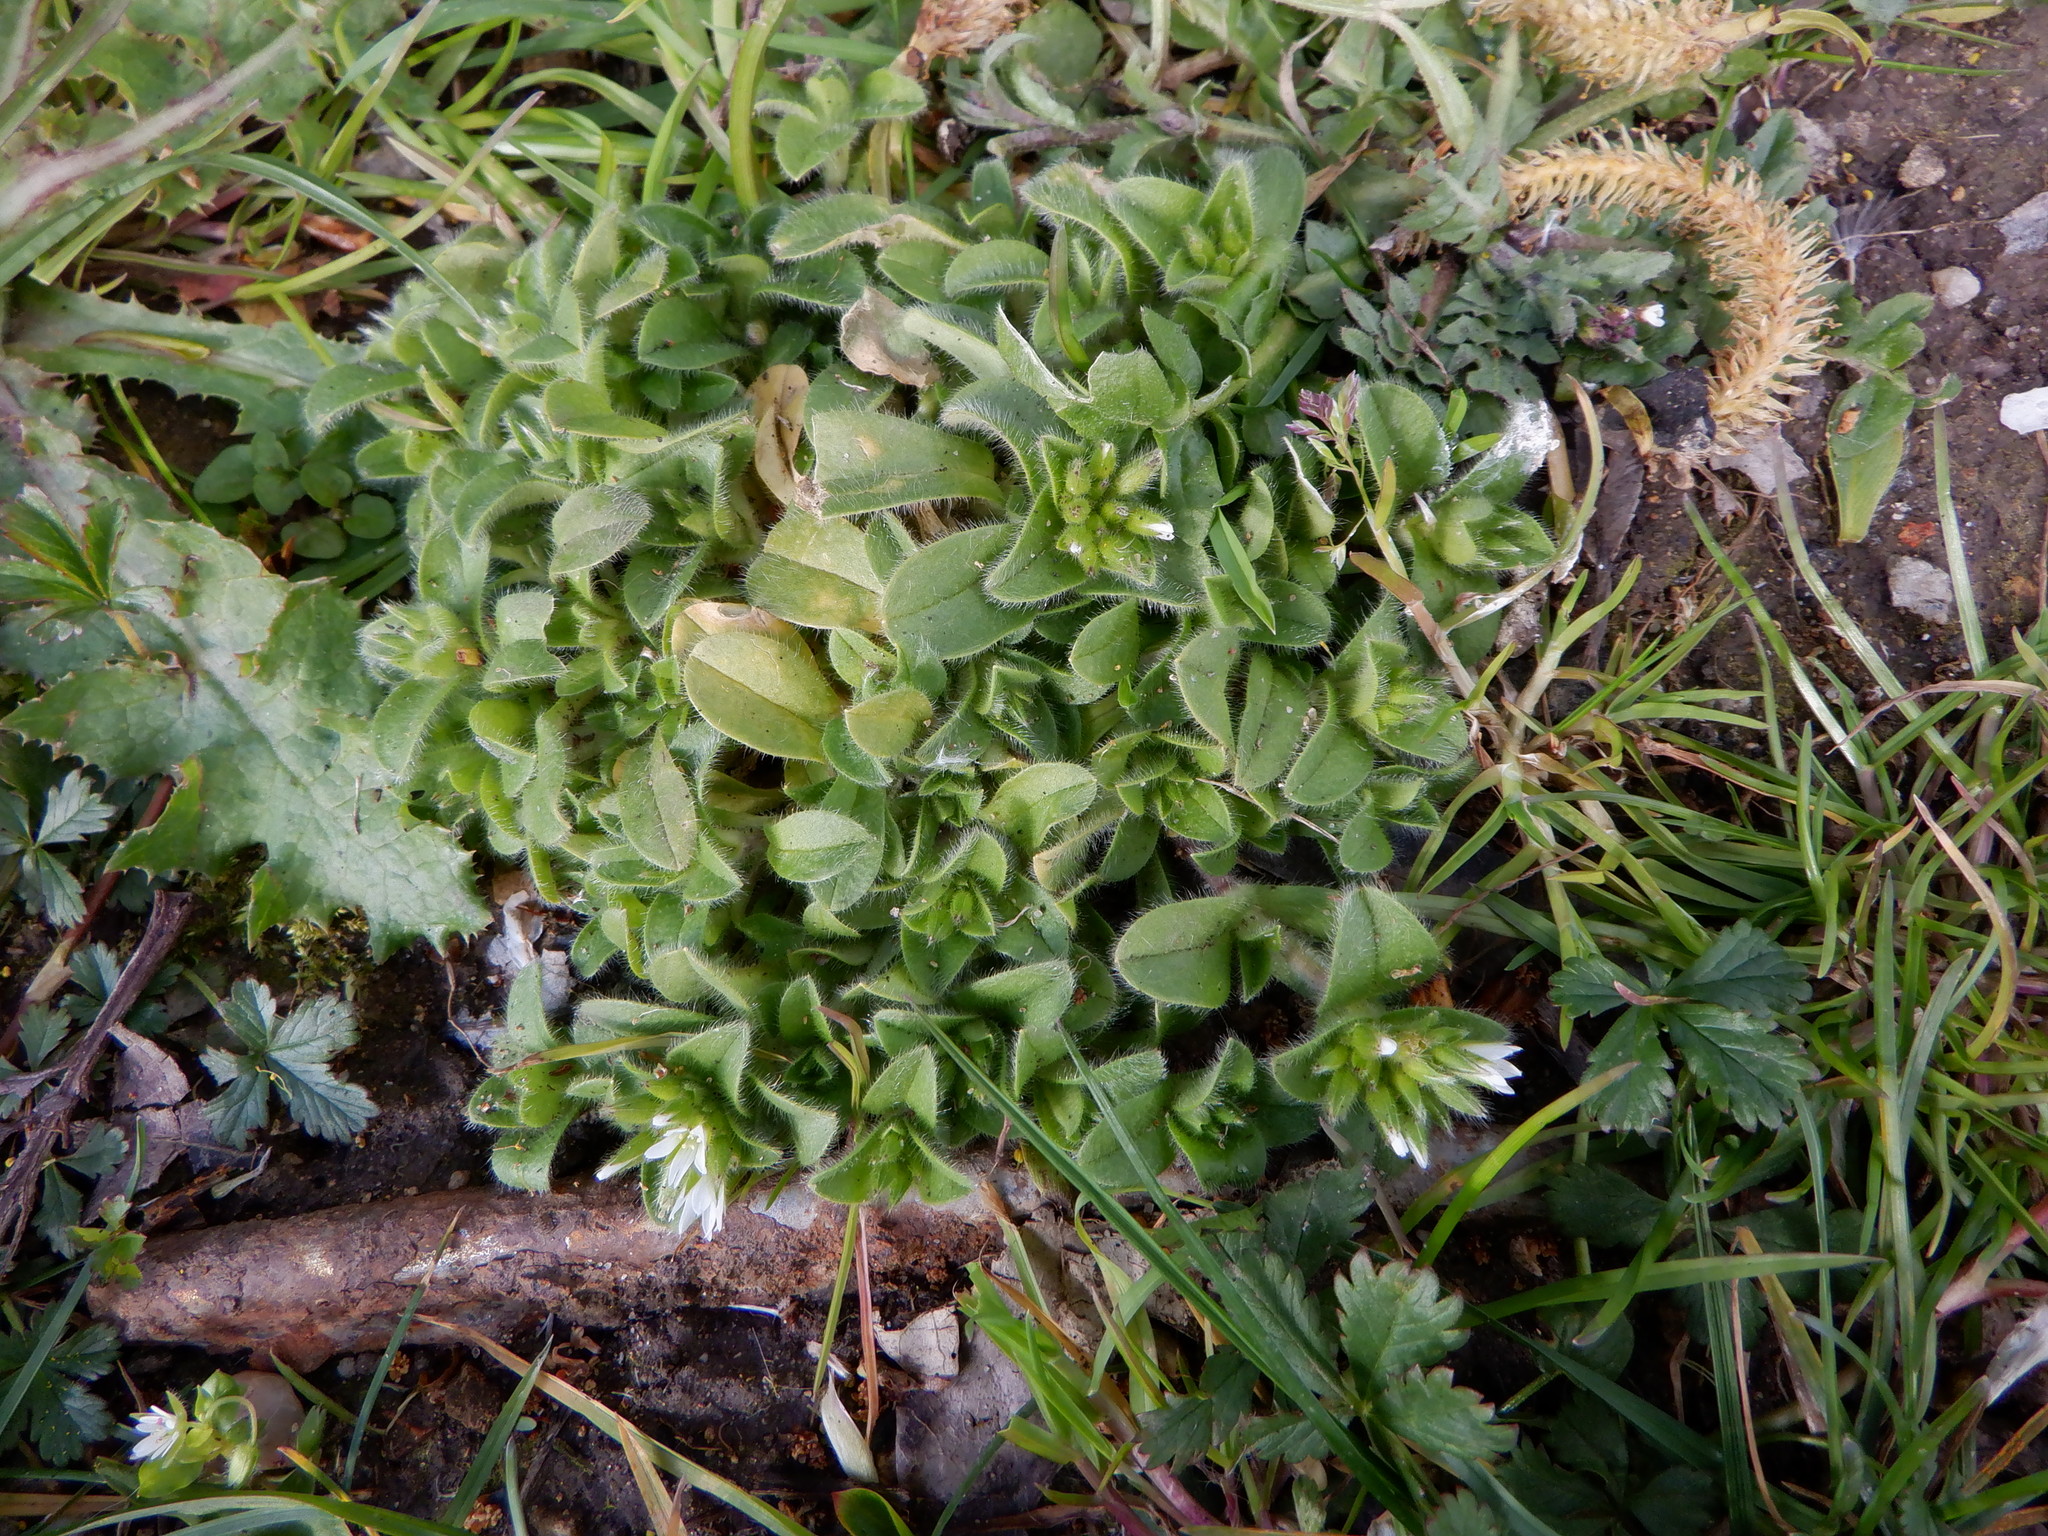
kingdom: Plantae
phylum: Tracheophyta
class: Magnoliopsida
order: Caryophyllales
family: Caryophyllaceae
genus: Cerastium
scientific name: Cerastium glomeratum
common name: Sticky chickweed
